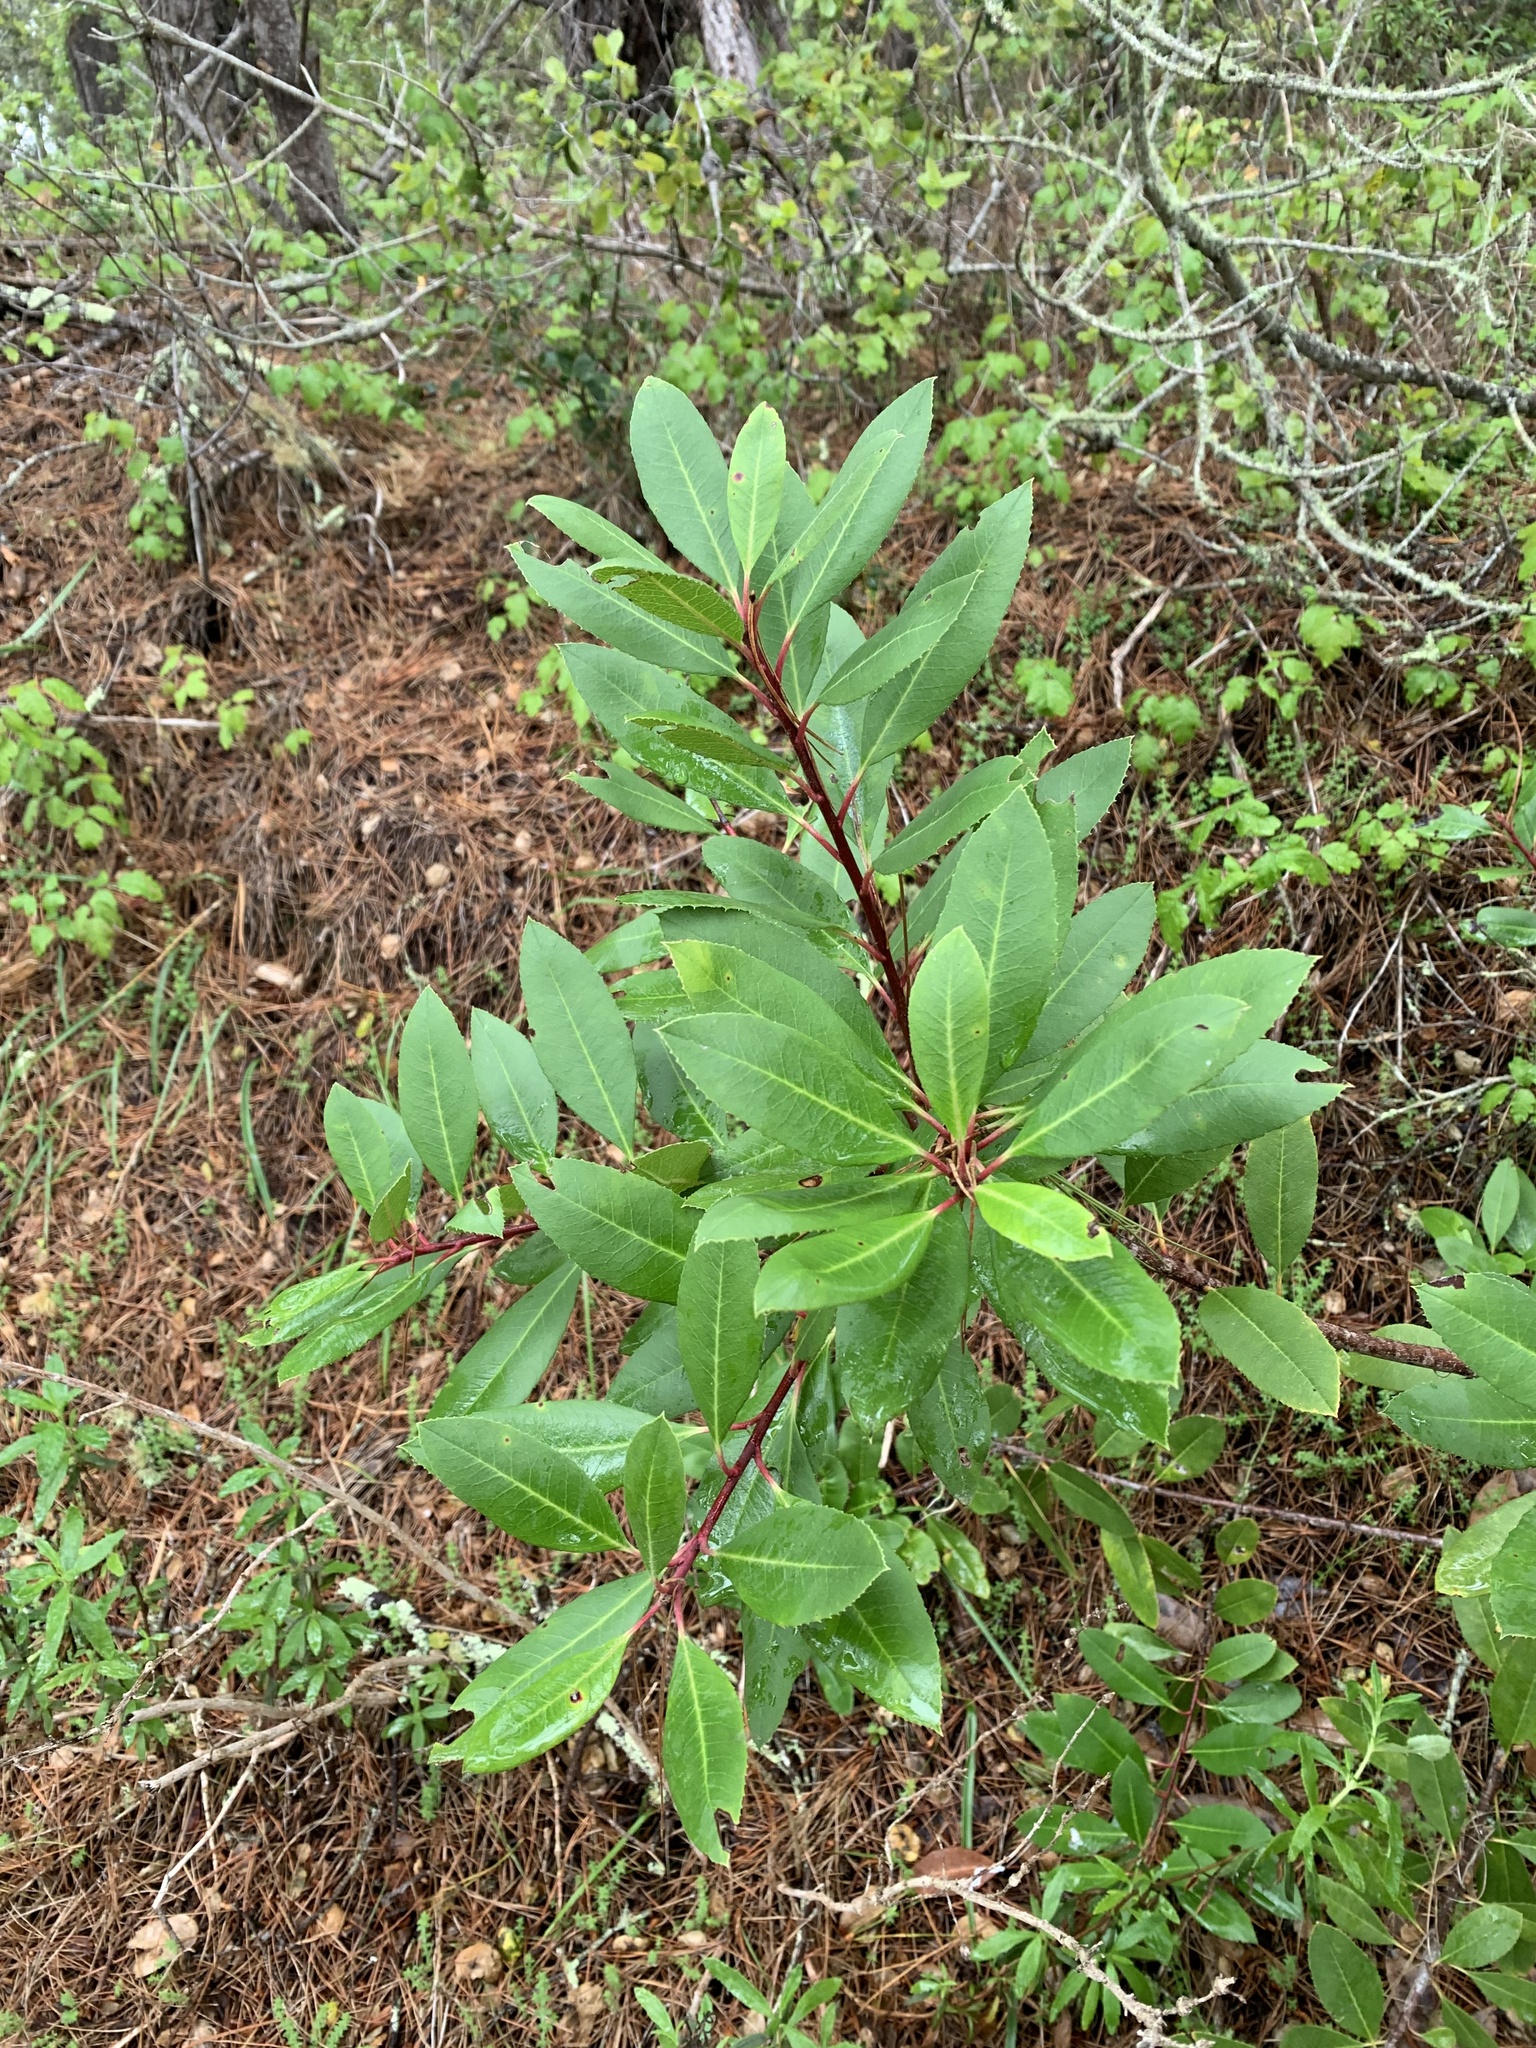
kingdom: Plantae
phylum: Tracheophyta
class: Magnoliopsida
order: Rosales
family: Rosaceae
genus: Heteromeles
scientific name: Heteromeles arbutifolia
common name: California-holly
